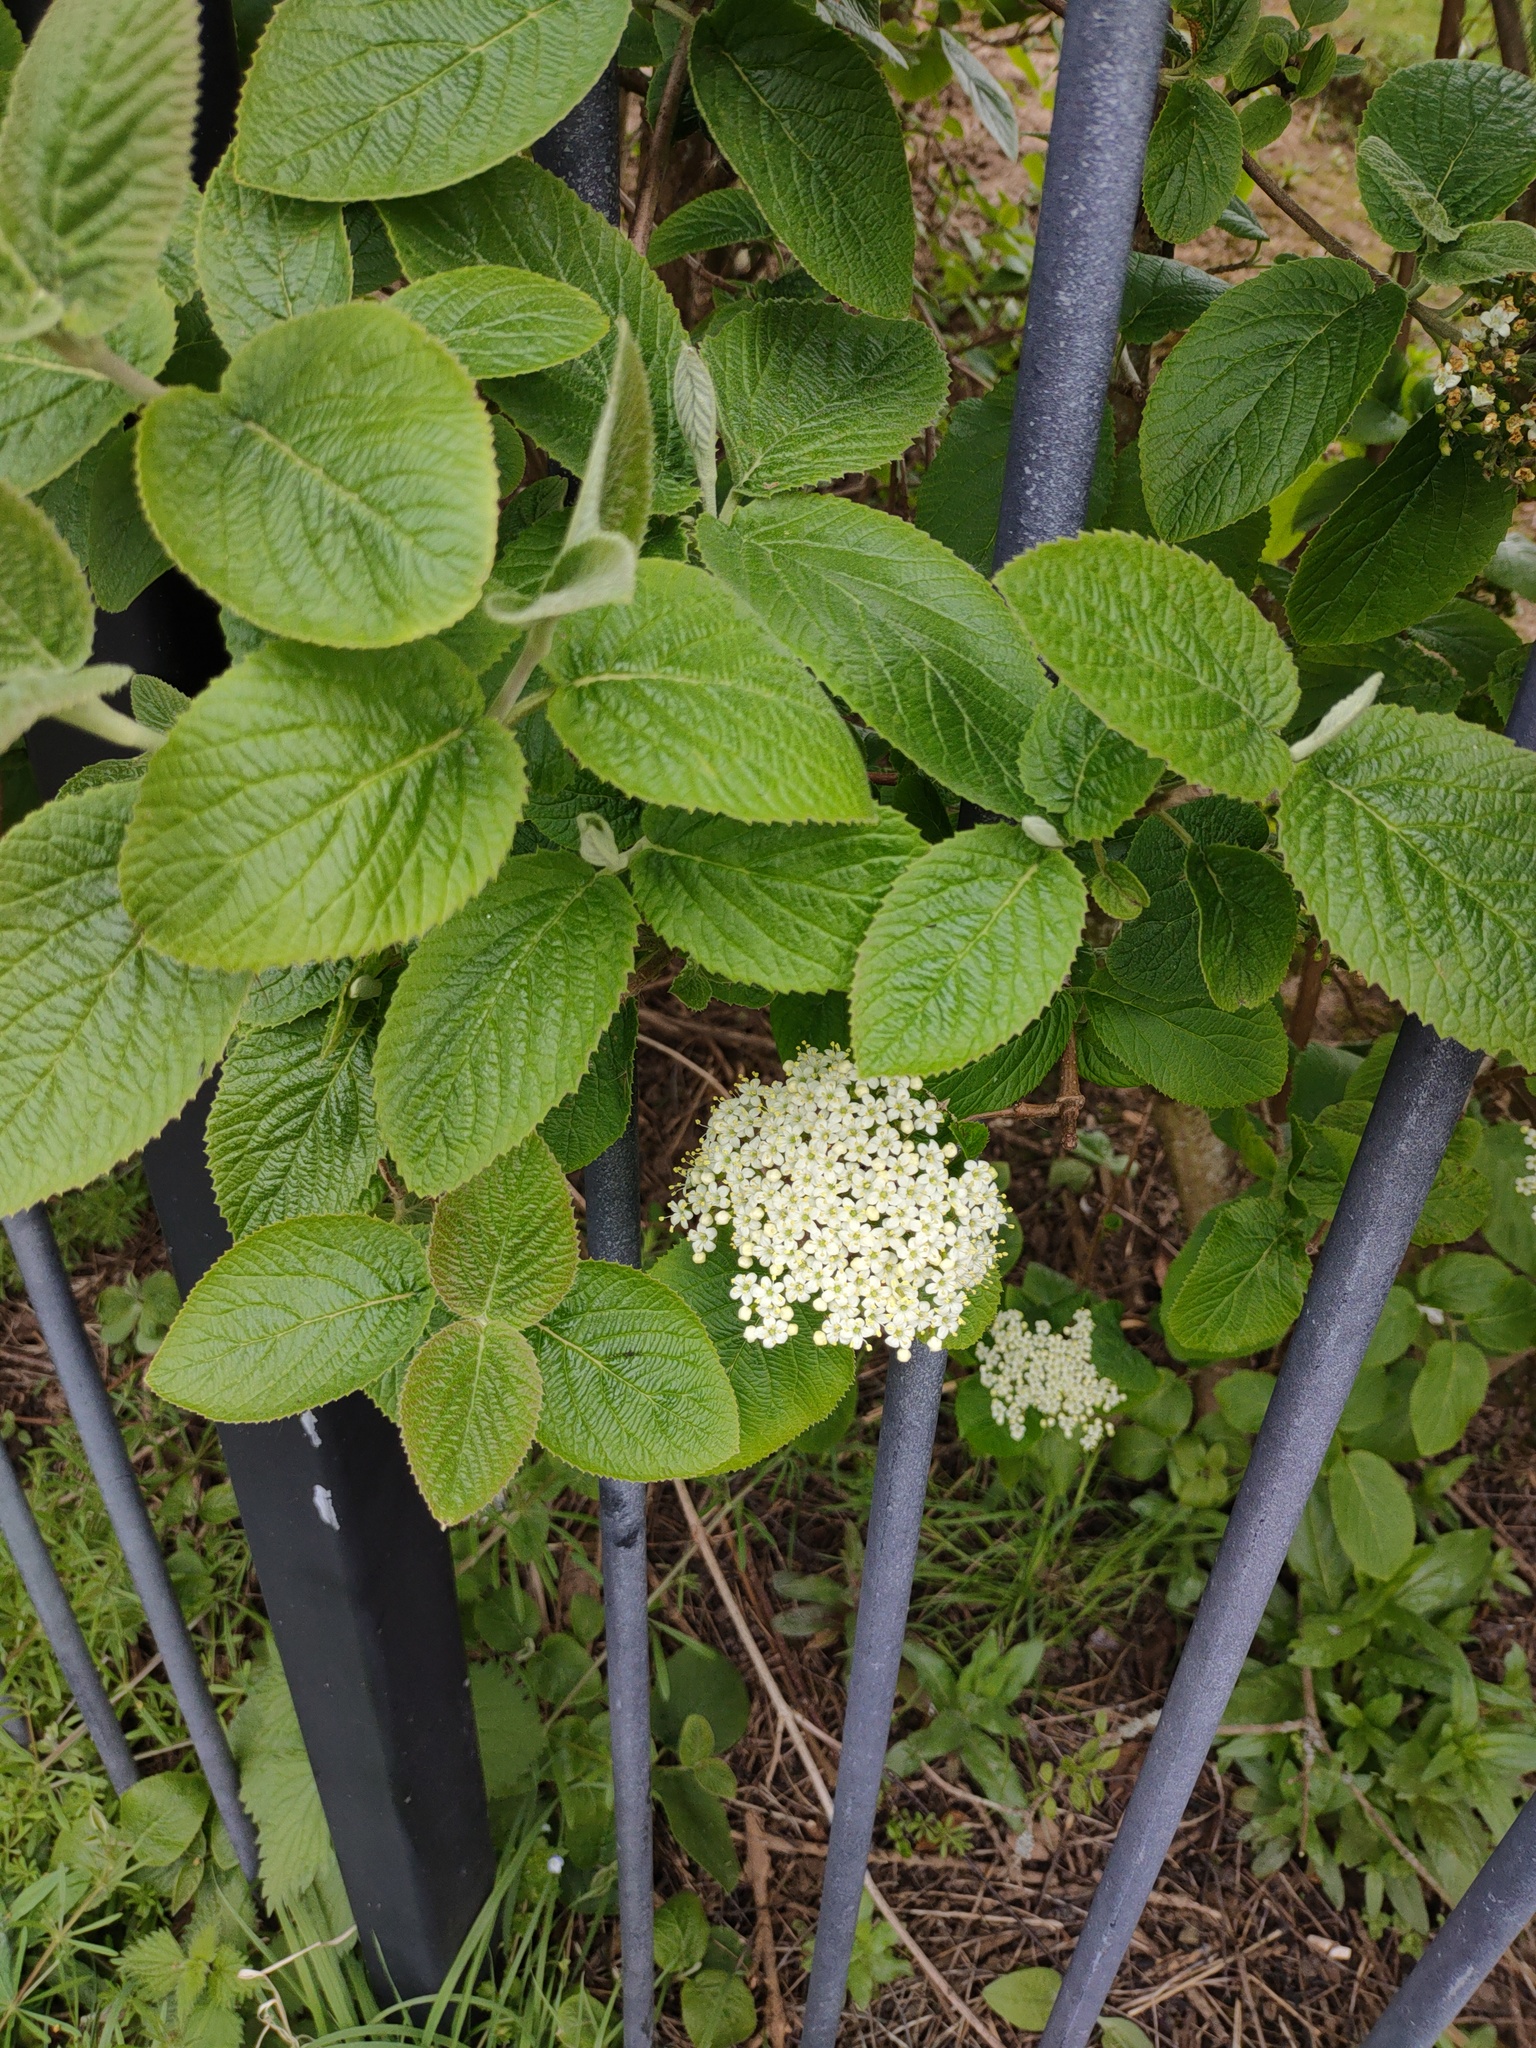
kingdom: Plantae
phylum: Tracheophyta
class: Magnoliopsida
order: Dipsacales
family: Viburnaceae
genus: Viburnum
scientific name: Viburnum lantana
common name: Wayfaring tree
